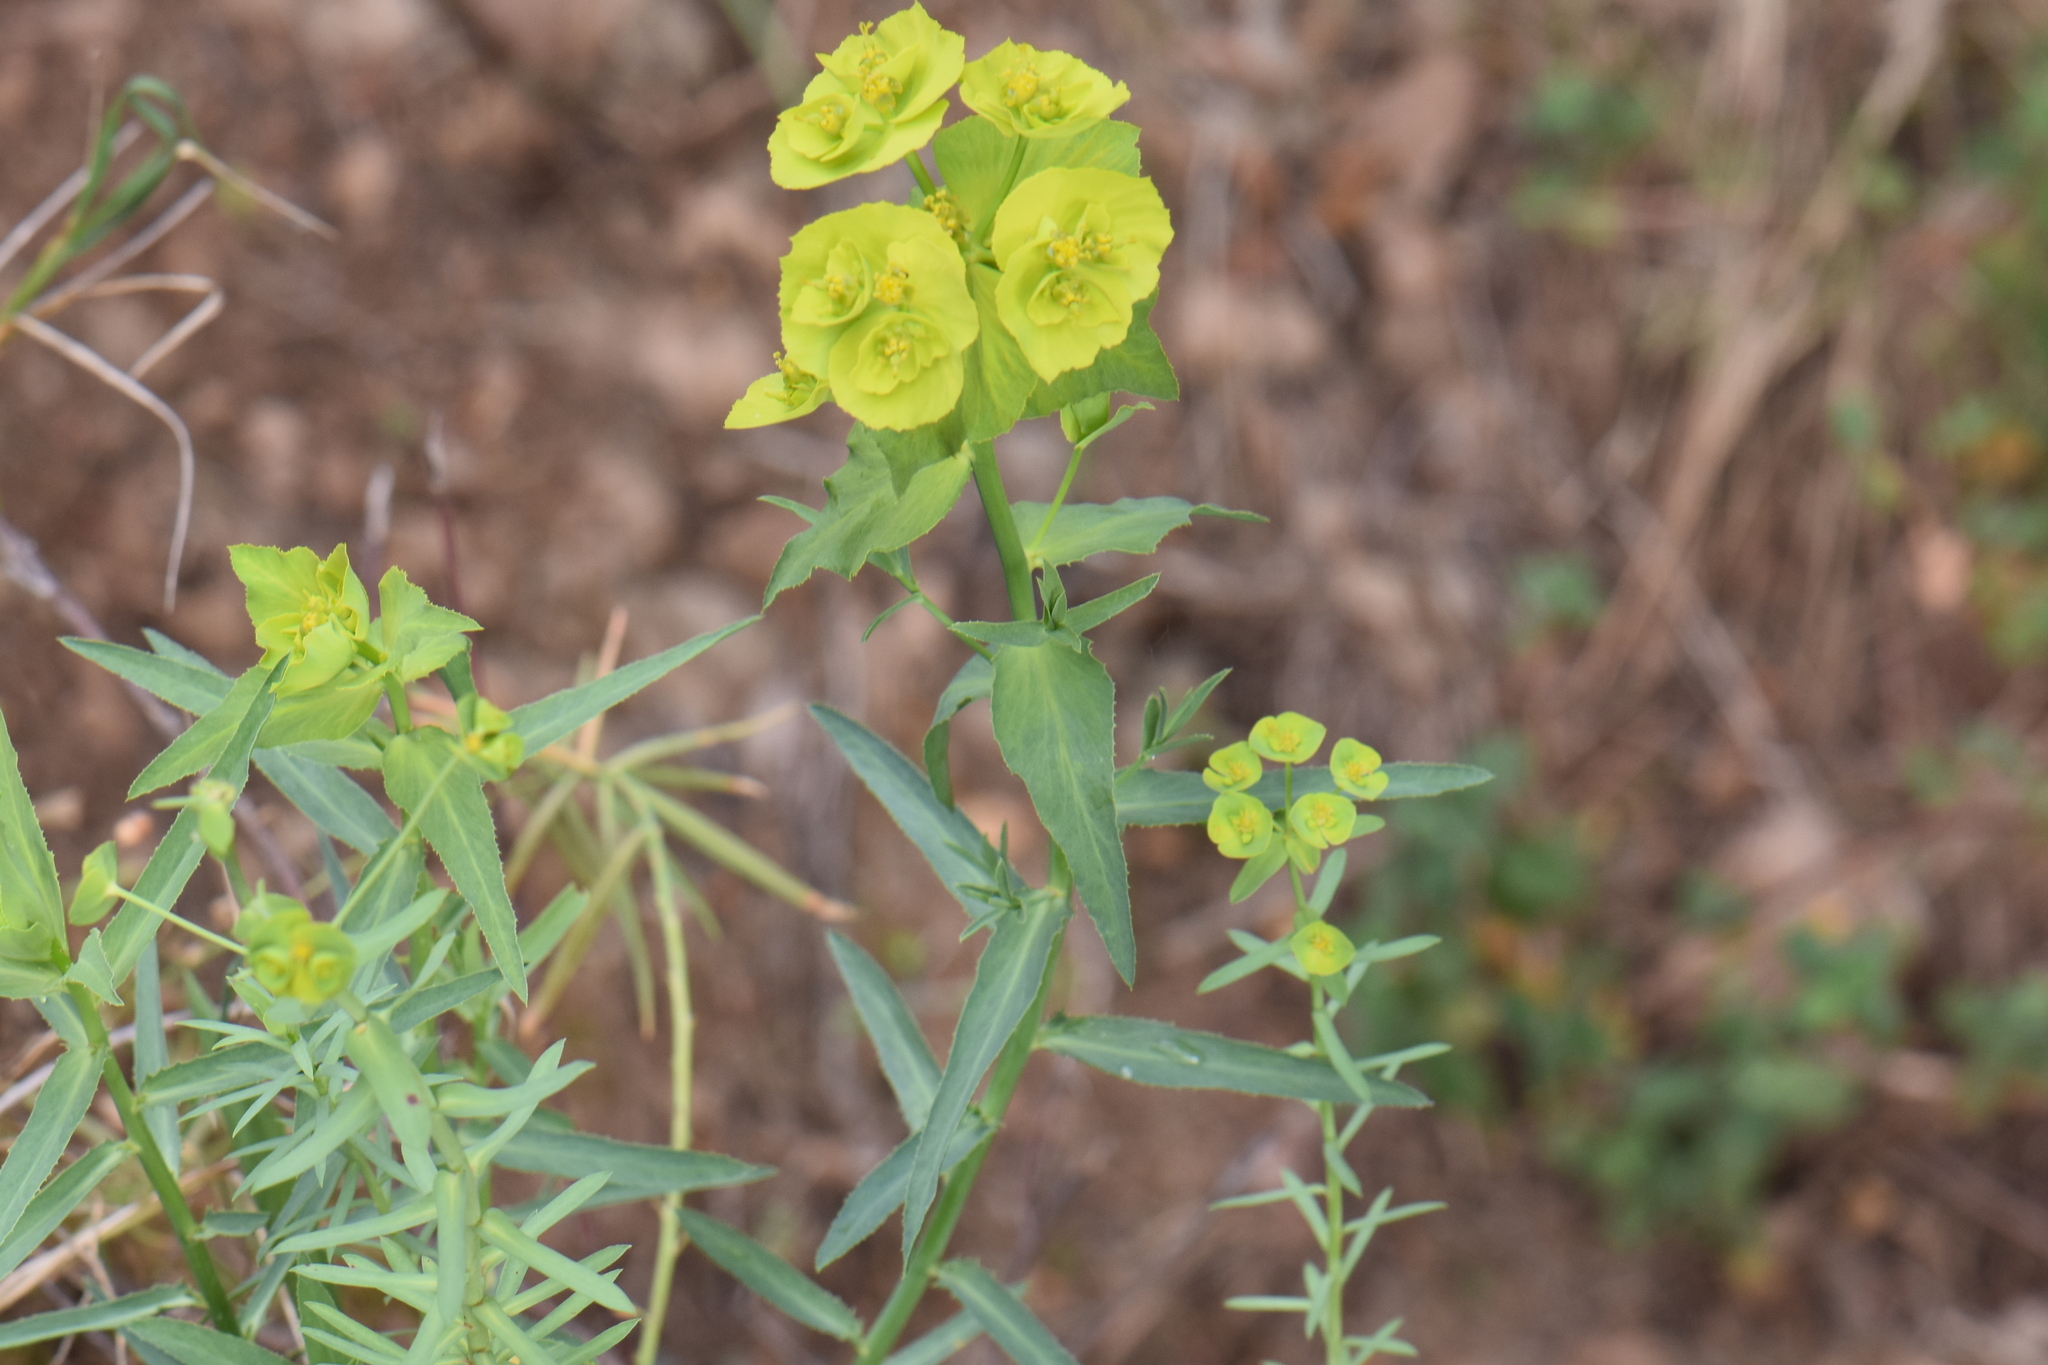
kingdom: Plantae
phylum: Tracheophyta
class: Magnoliopsida
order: Malpighiales
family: Euphorbiaceae
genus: Euphorbia
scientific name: Euphorbia serrata
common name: Serrate spurge
